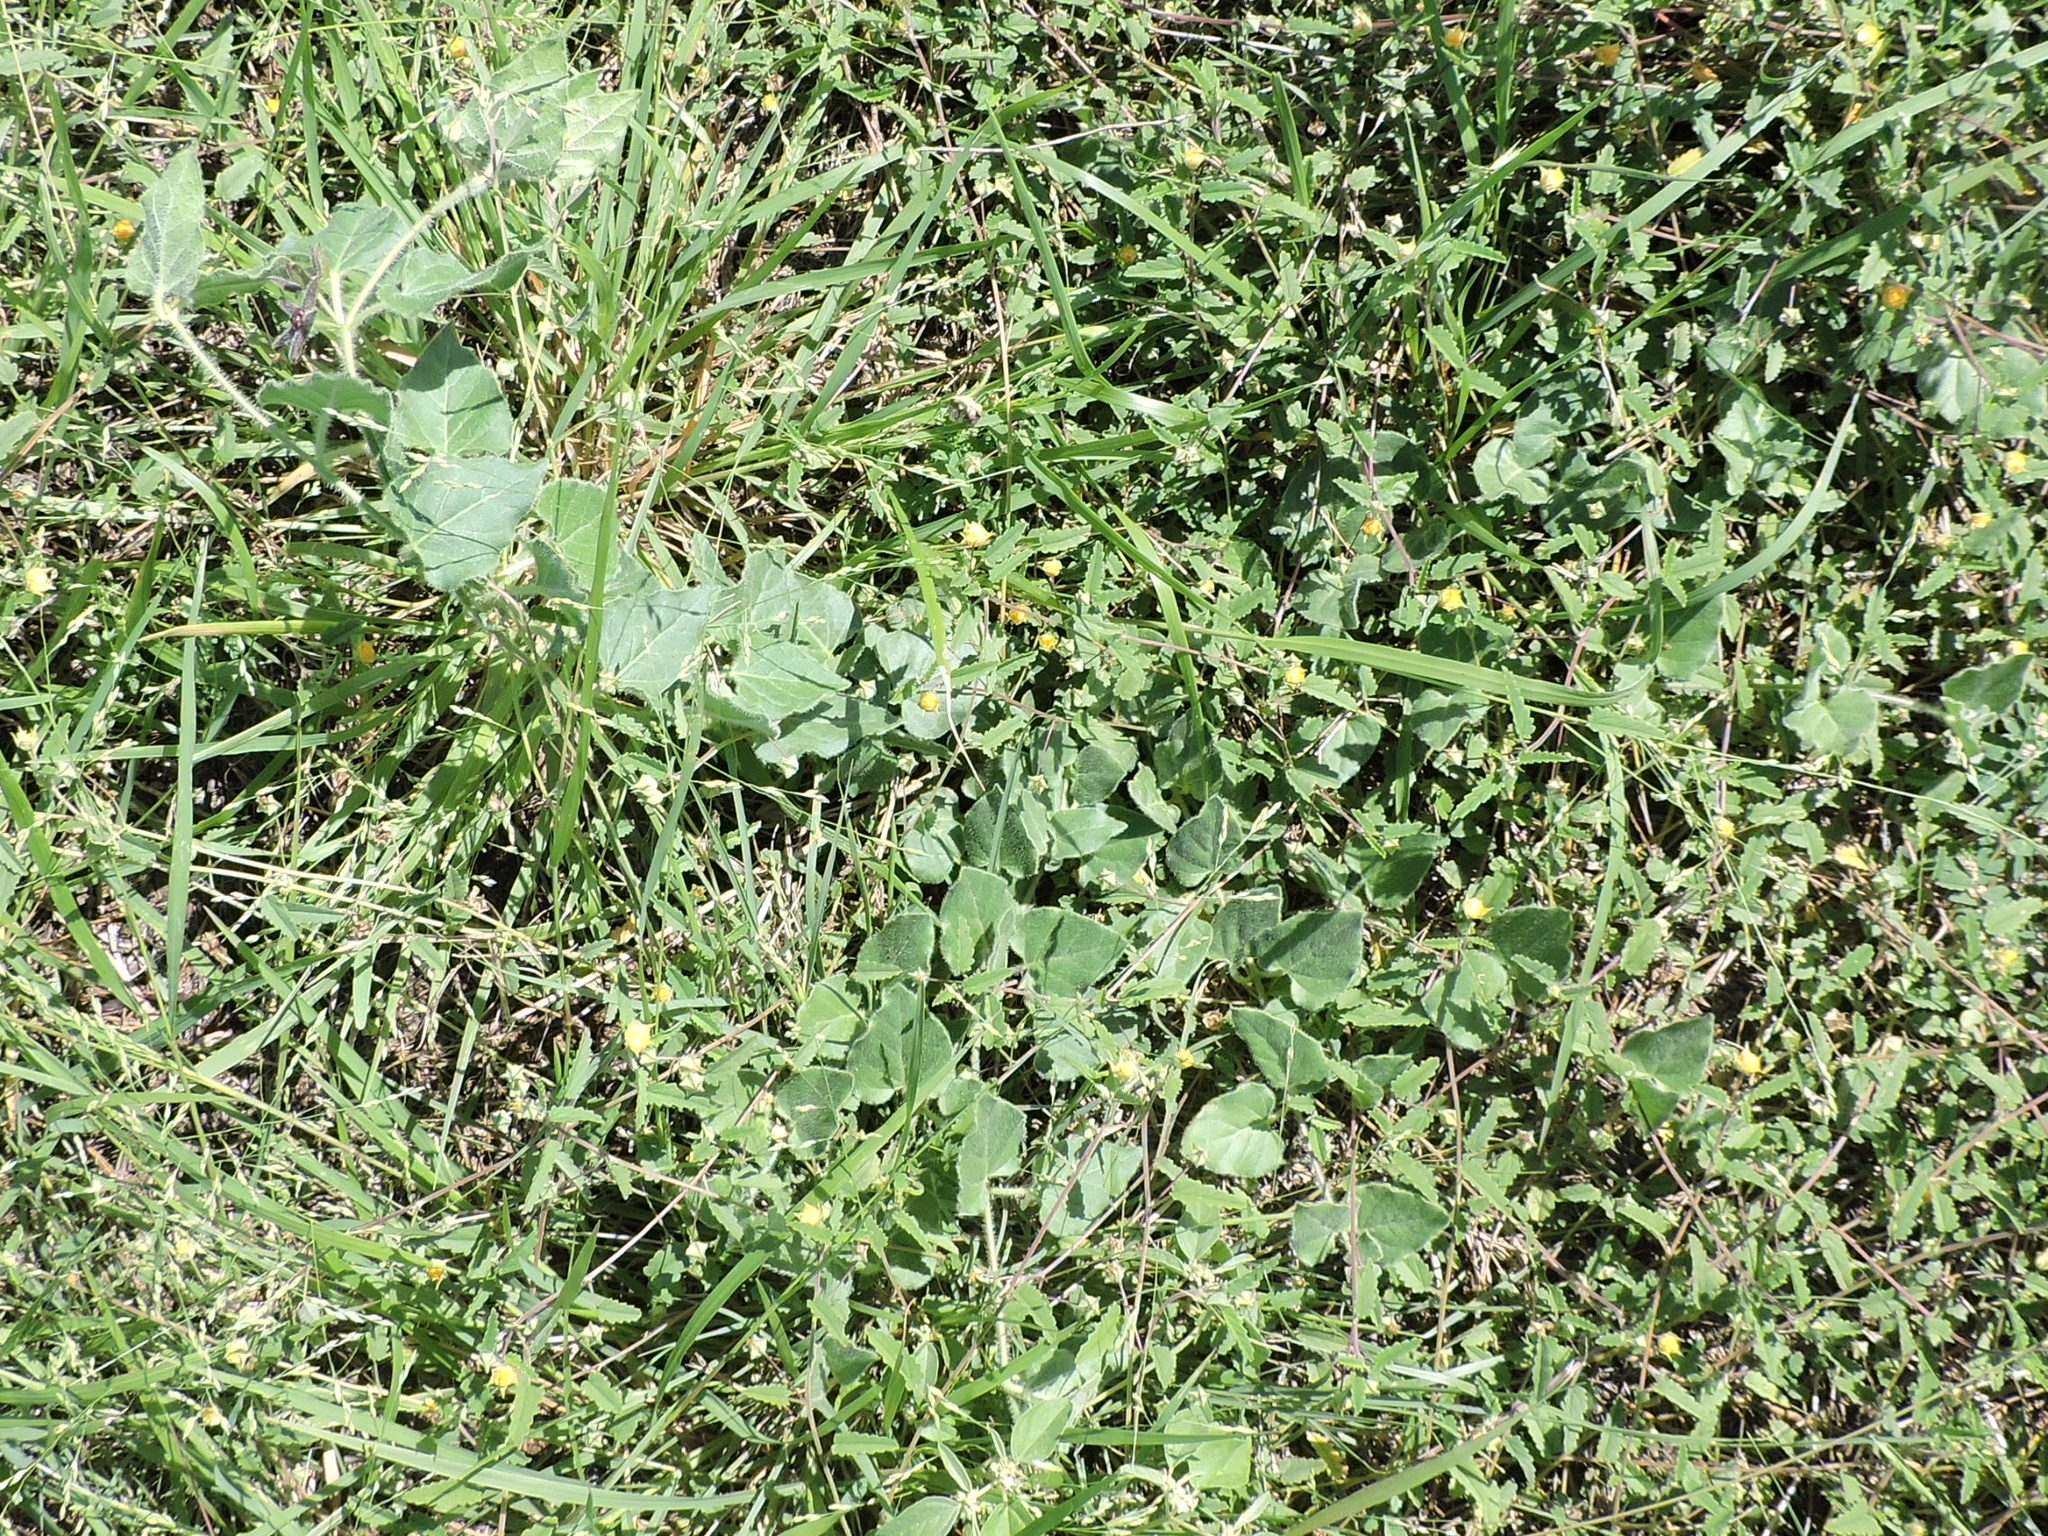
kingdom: Plantae
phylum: Tracheophyta
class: Magnoliopsida
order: Gentianales
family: Apocynaceae
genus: Chthamalia
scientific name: Chthamalia biflora
